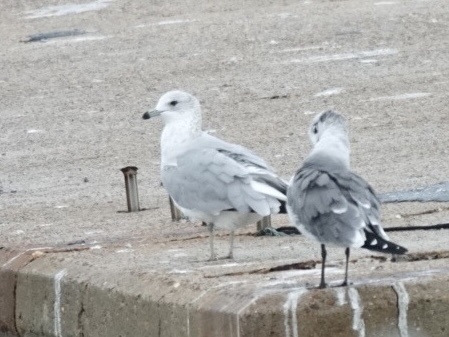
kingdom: Animalia
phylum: Chordata
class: Aves
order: Charadriiformes
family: Laridae
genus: Larus
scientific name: Larus delawarensis
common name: Ring-billed gull
